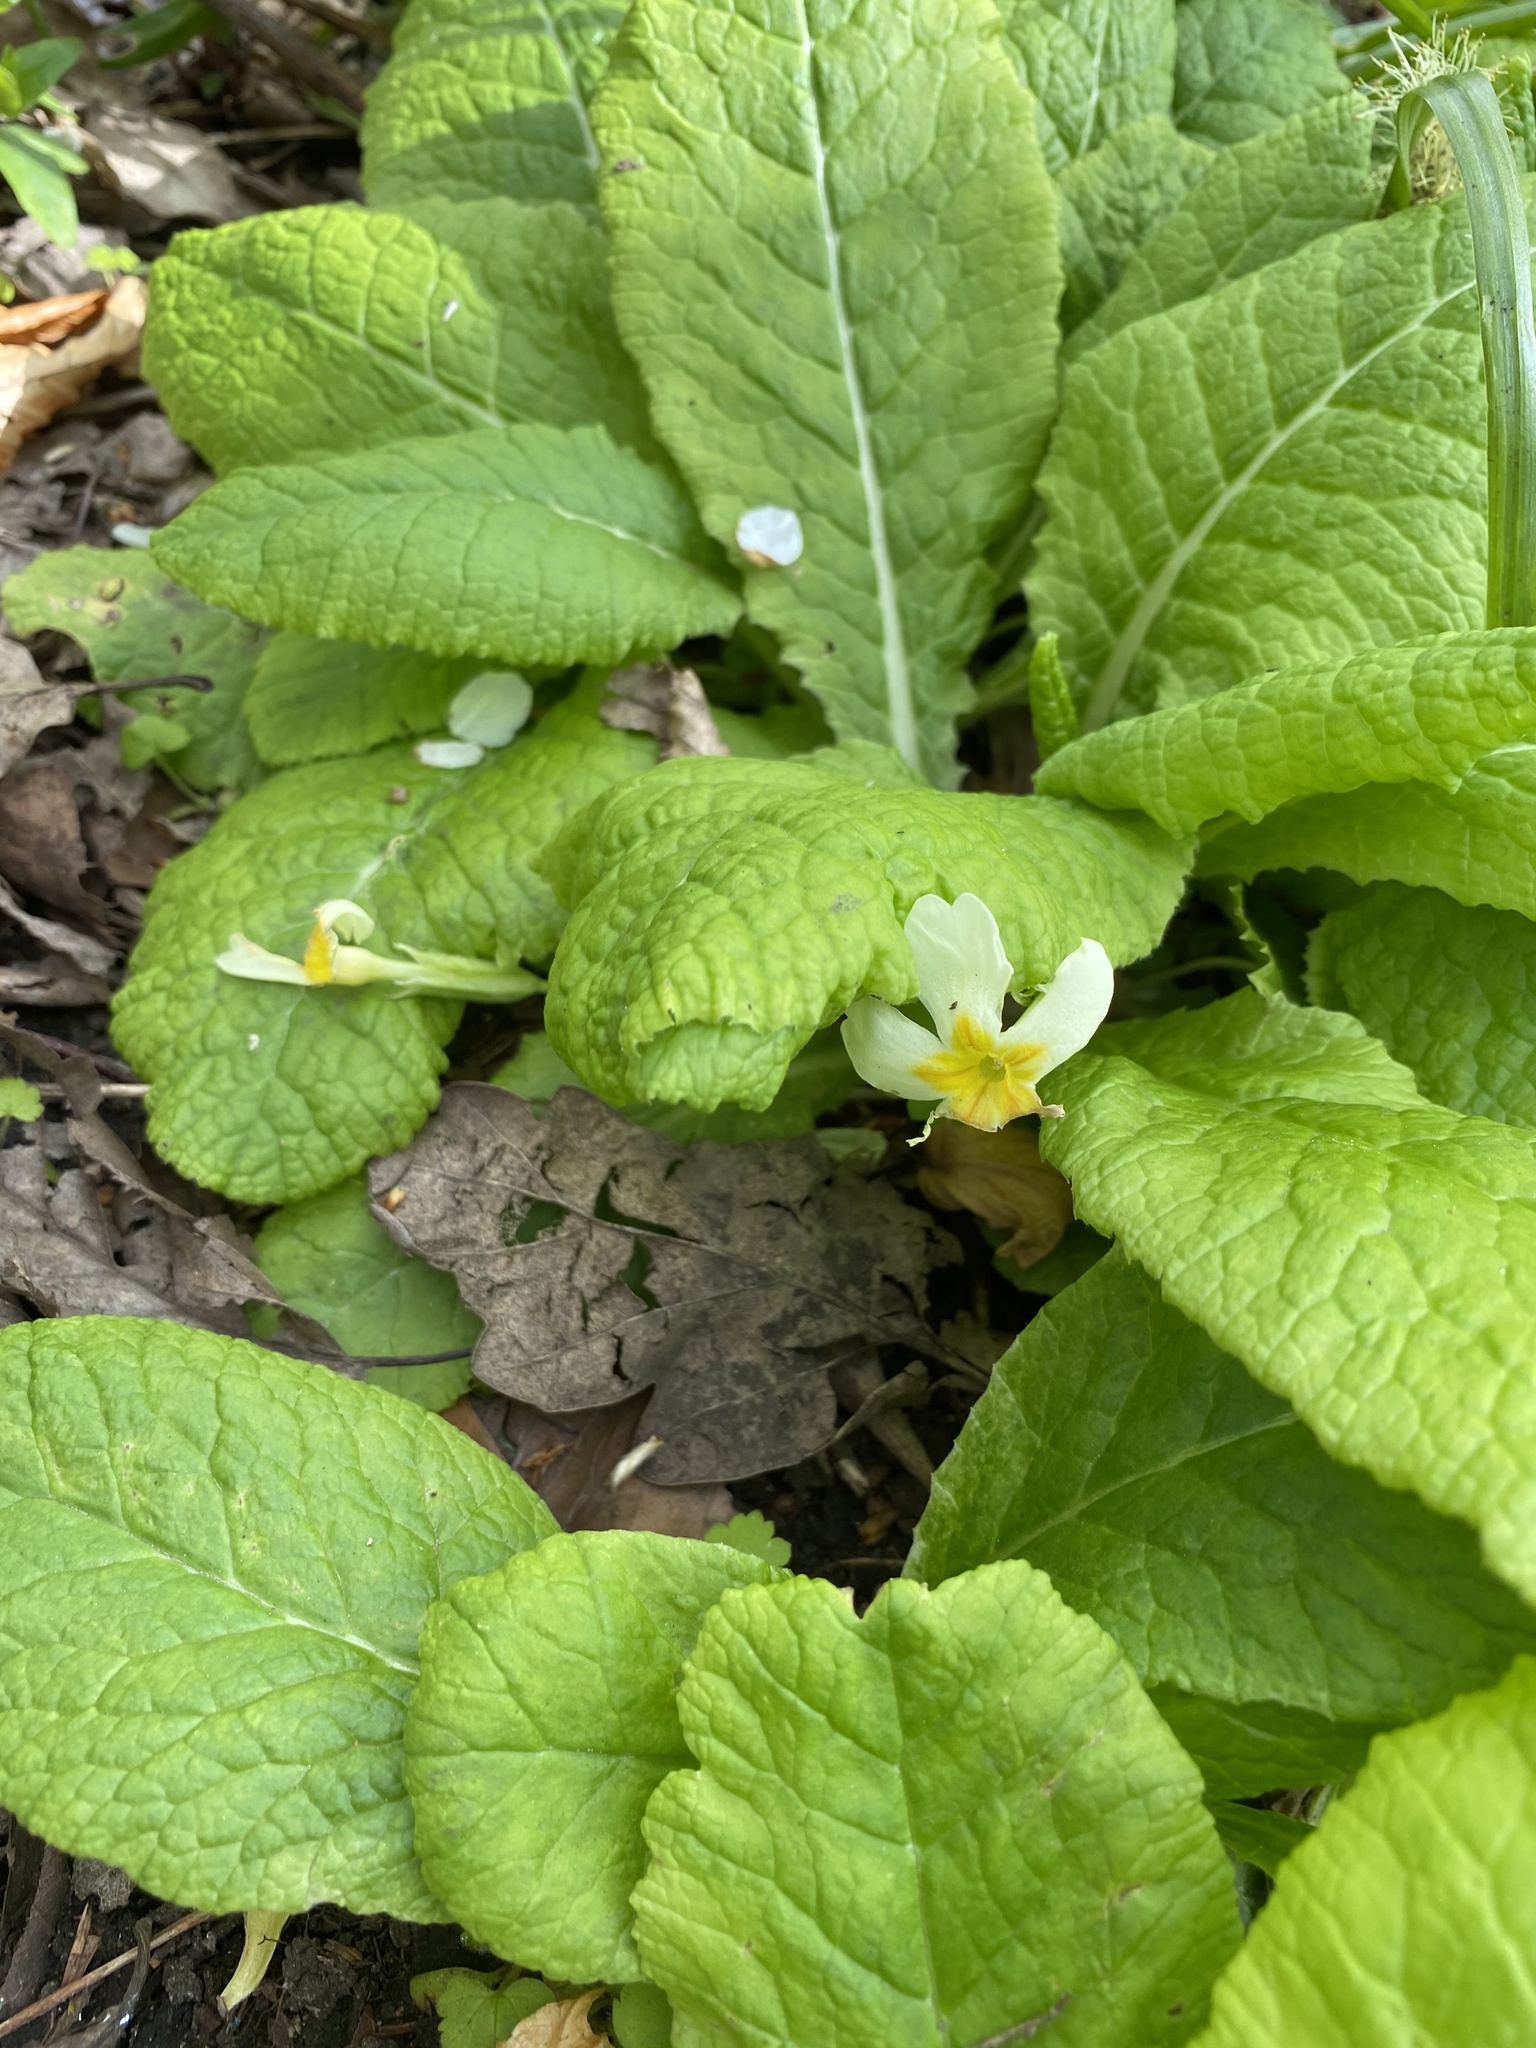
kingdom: Plantae
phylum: Tracheophyta
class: Magnoliopsida
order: Ericales
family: Primulaceae
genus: Primula
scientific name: Primula vulgaris
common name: Primrose
